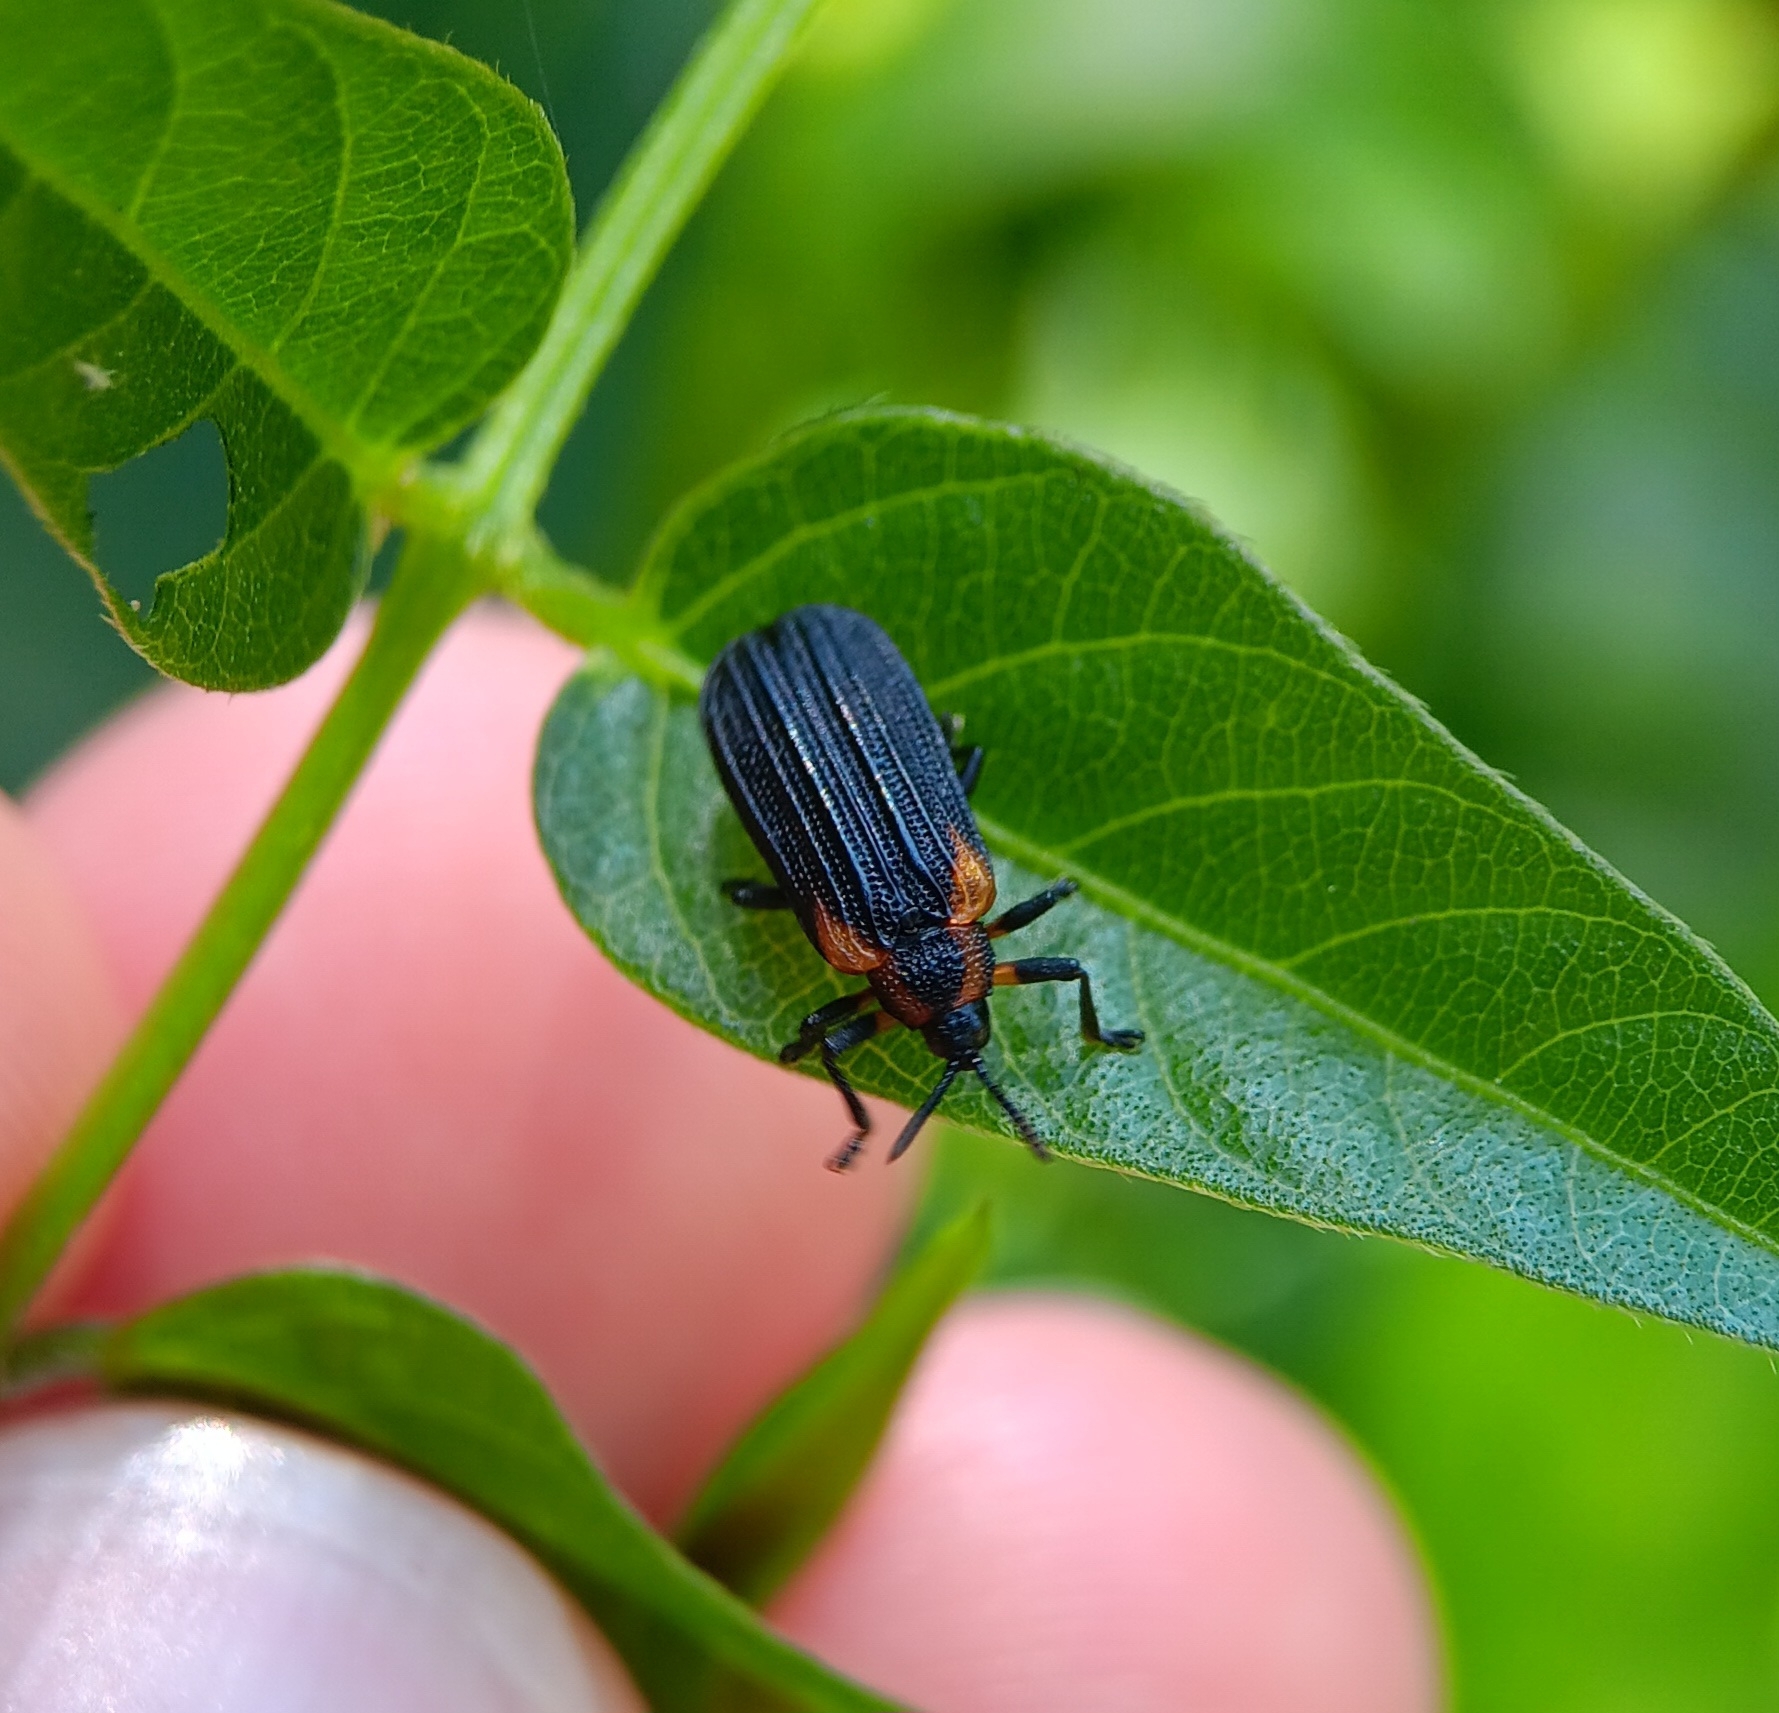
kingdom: Animalia
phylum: Arthropoda
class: Insecta
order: Coleoptera
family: Chrysomelidae
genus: Odontota
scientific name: Odontota scapularis
